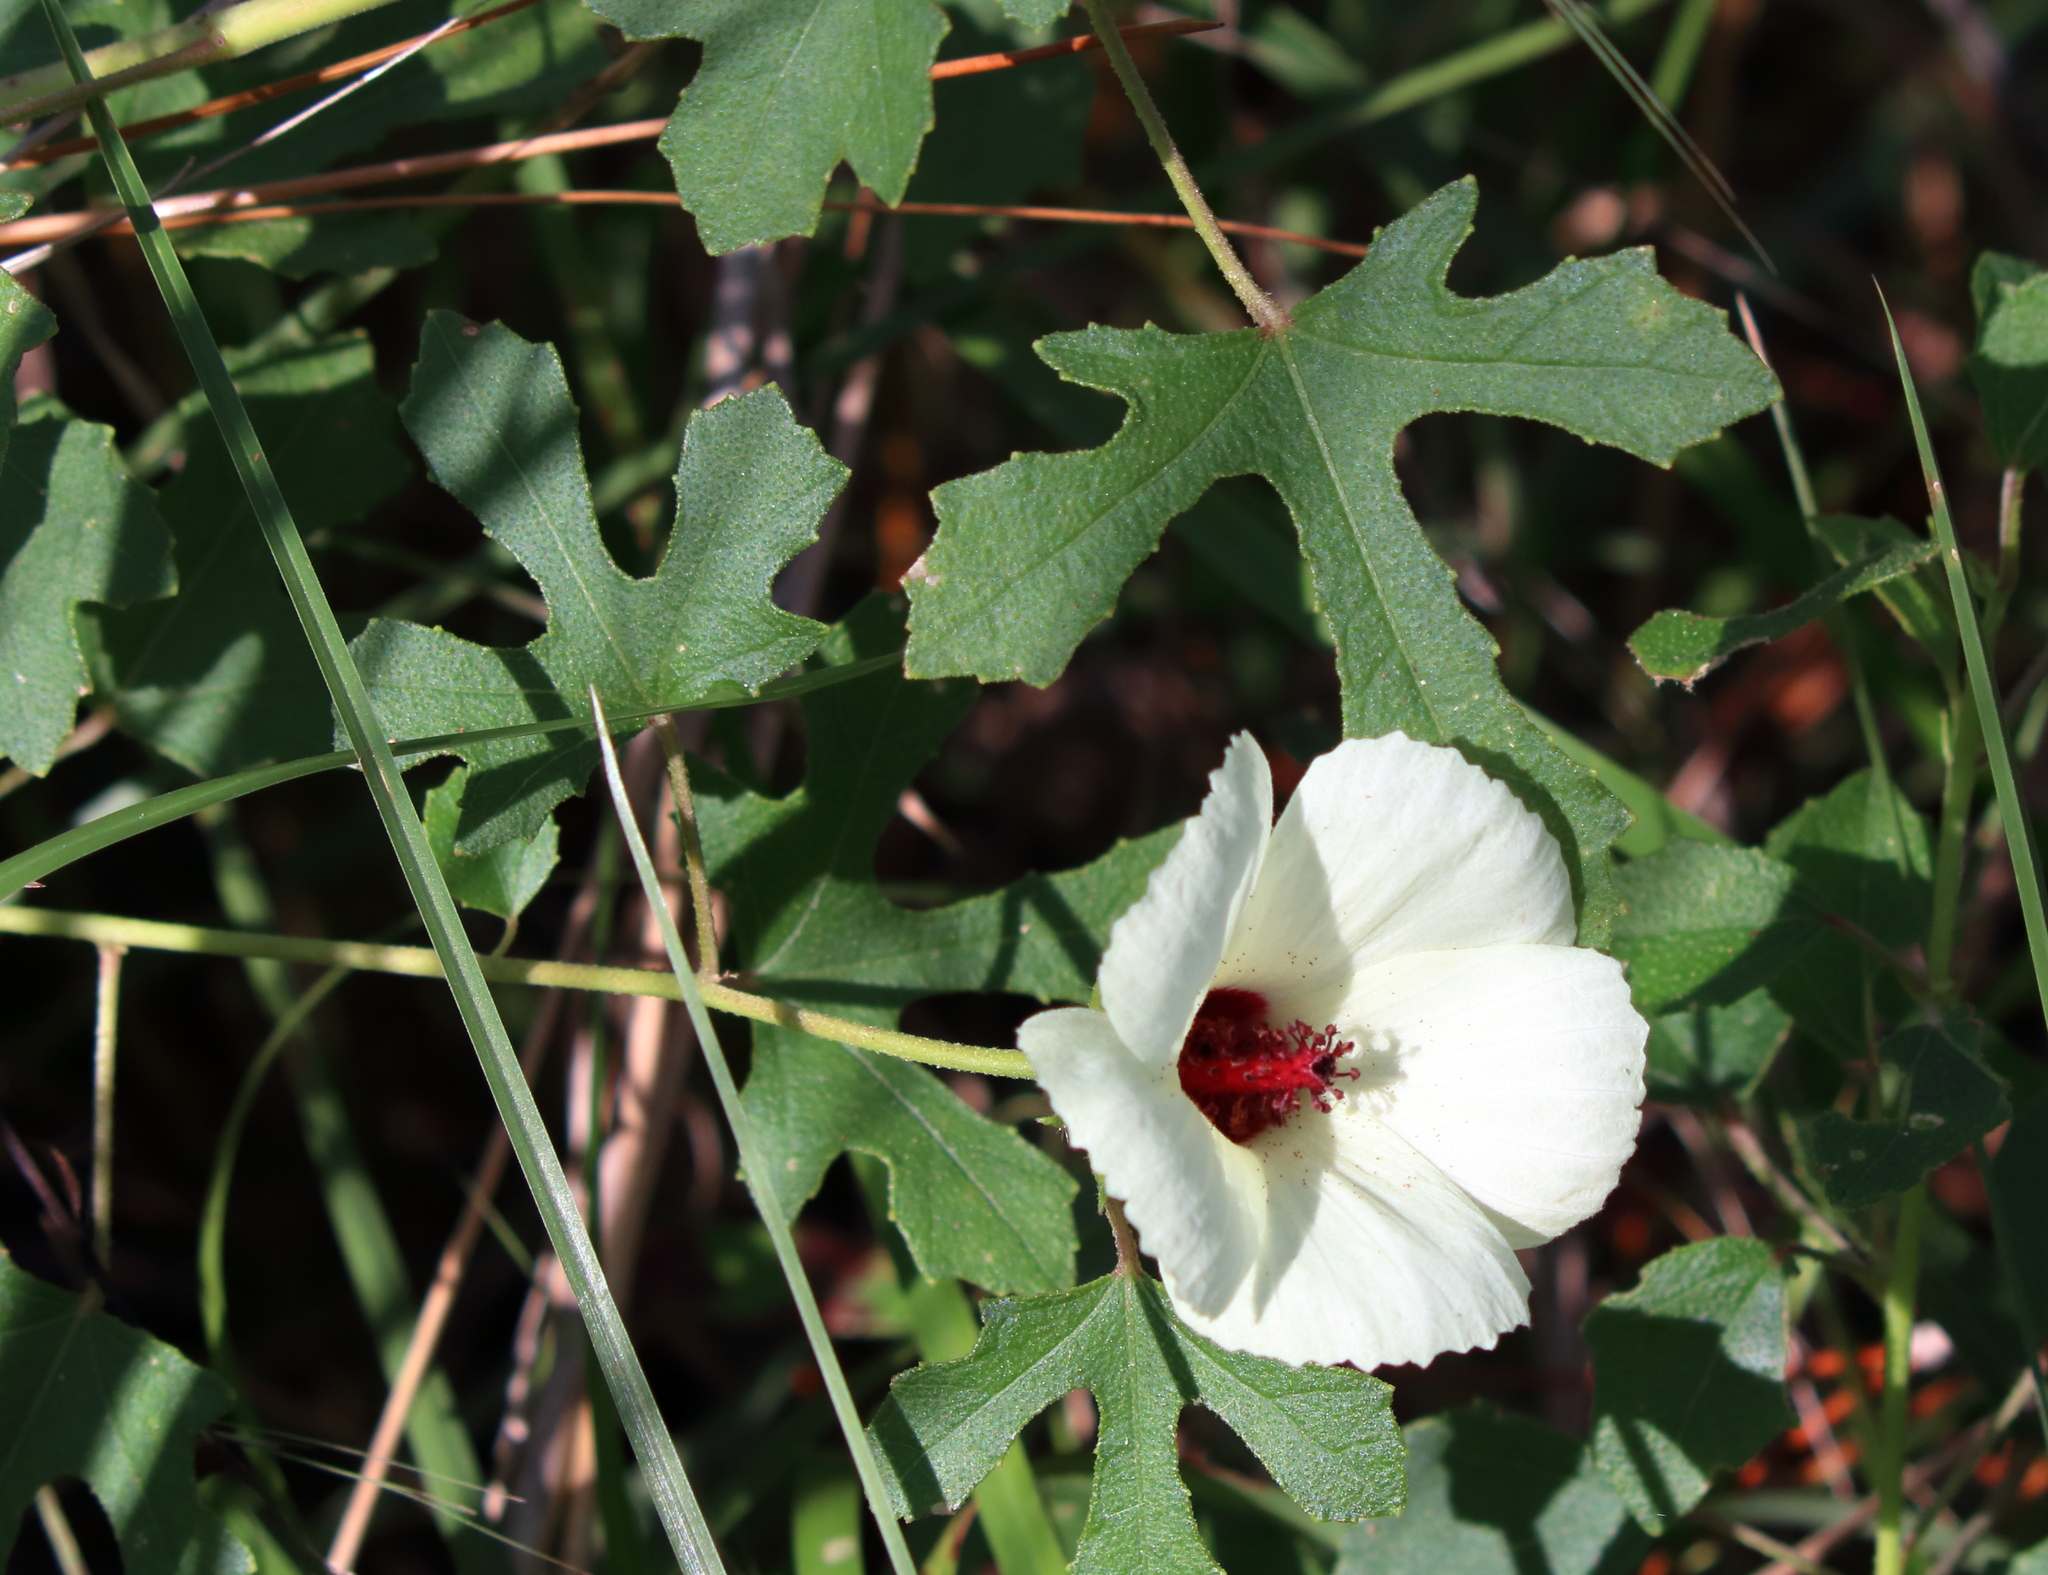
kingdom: Plantae
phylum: Tracheophyta
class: Magnoliopsida
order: Malvales
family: Malvaceae
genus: Hibiscus
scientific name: Hibiscus aculeatus
